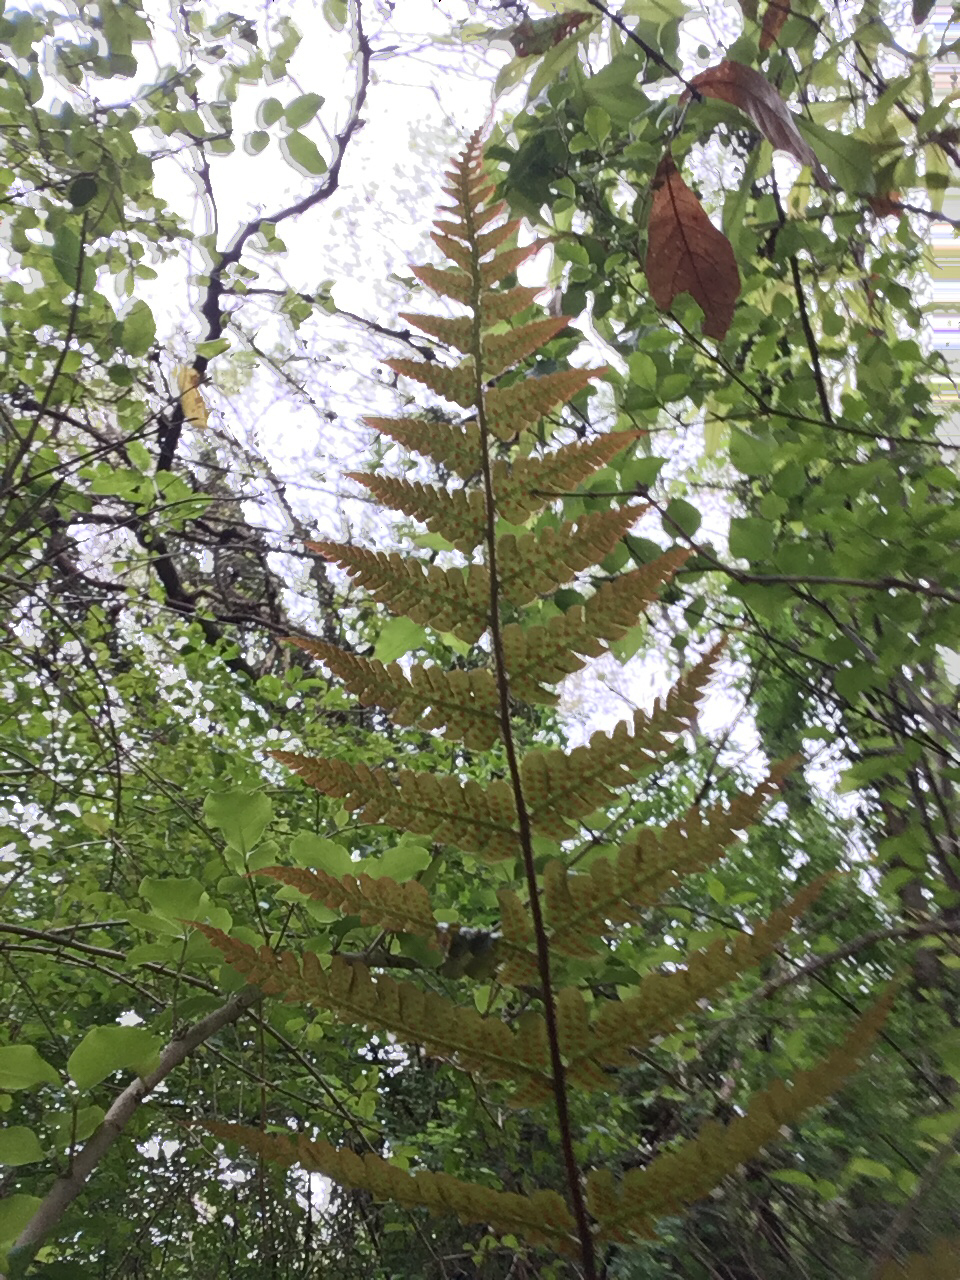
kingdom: Plantae
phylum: Tracheophyta
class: Polypodiopsida
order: Polypodiales
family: Dryopteridaceae
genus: Dryopteris
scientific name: Dryopteris erythrosora
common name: Autumn fern
